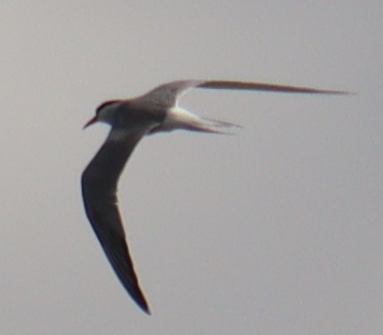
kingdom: Animalia
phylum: Chordata
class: Aves
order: Charadriiformes
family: Laridae
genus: Sterna
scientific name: Sterna hirundo
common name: Common tern
